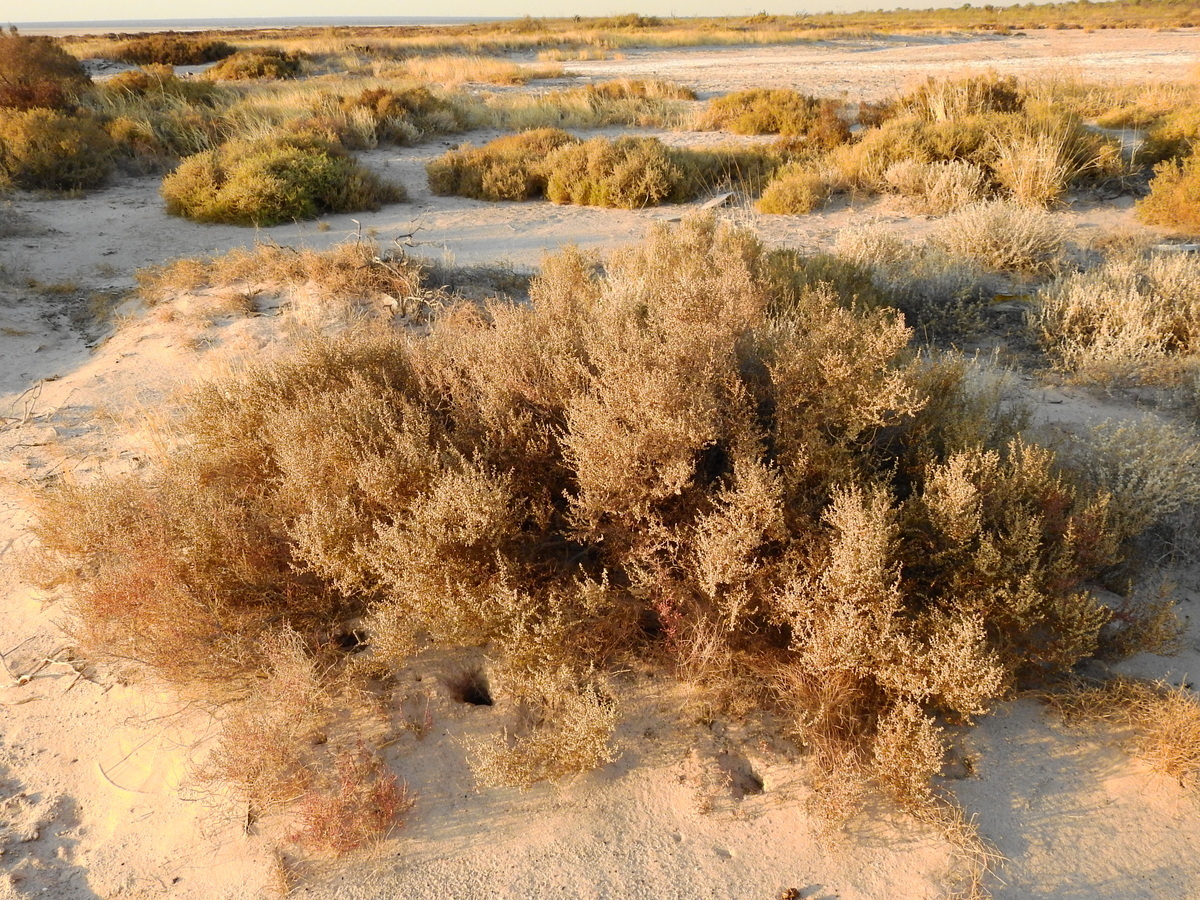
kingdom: Plantae
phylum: Tracheophyta
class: Magnoliopsida
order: Caryophyllales
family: Amaranthaceae
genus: Heterostachys
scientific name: Heterostachys ritteriana
